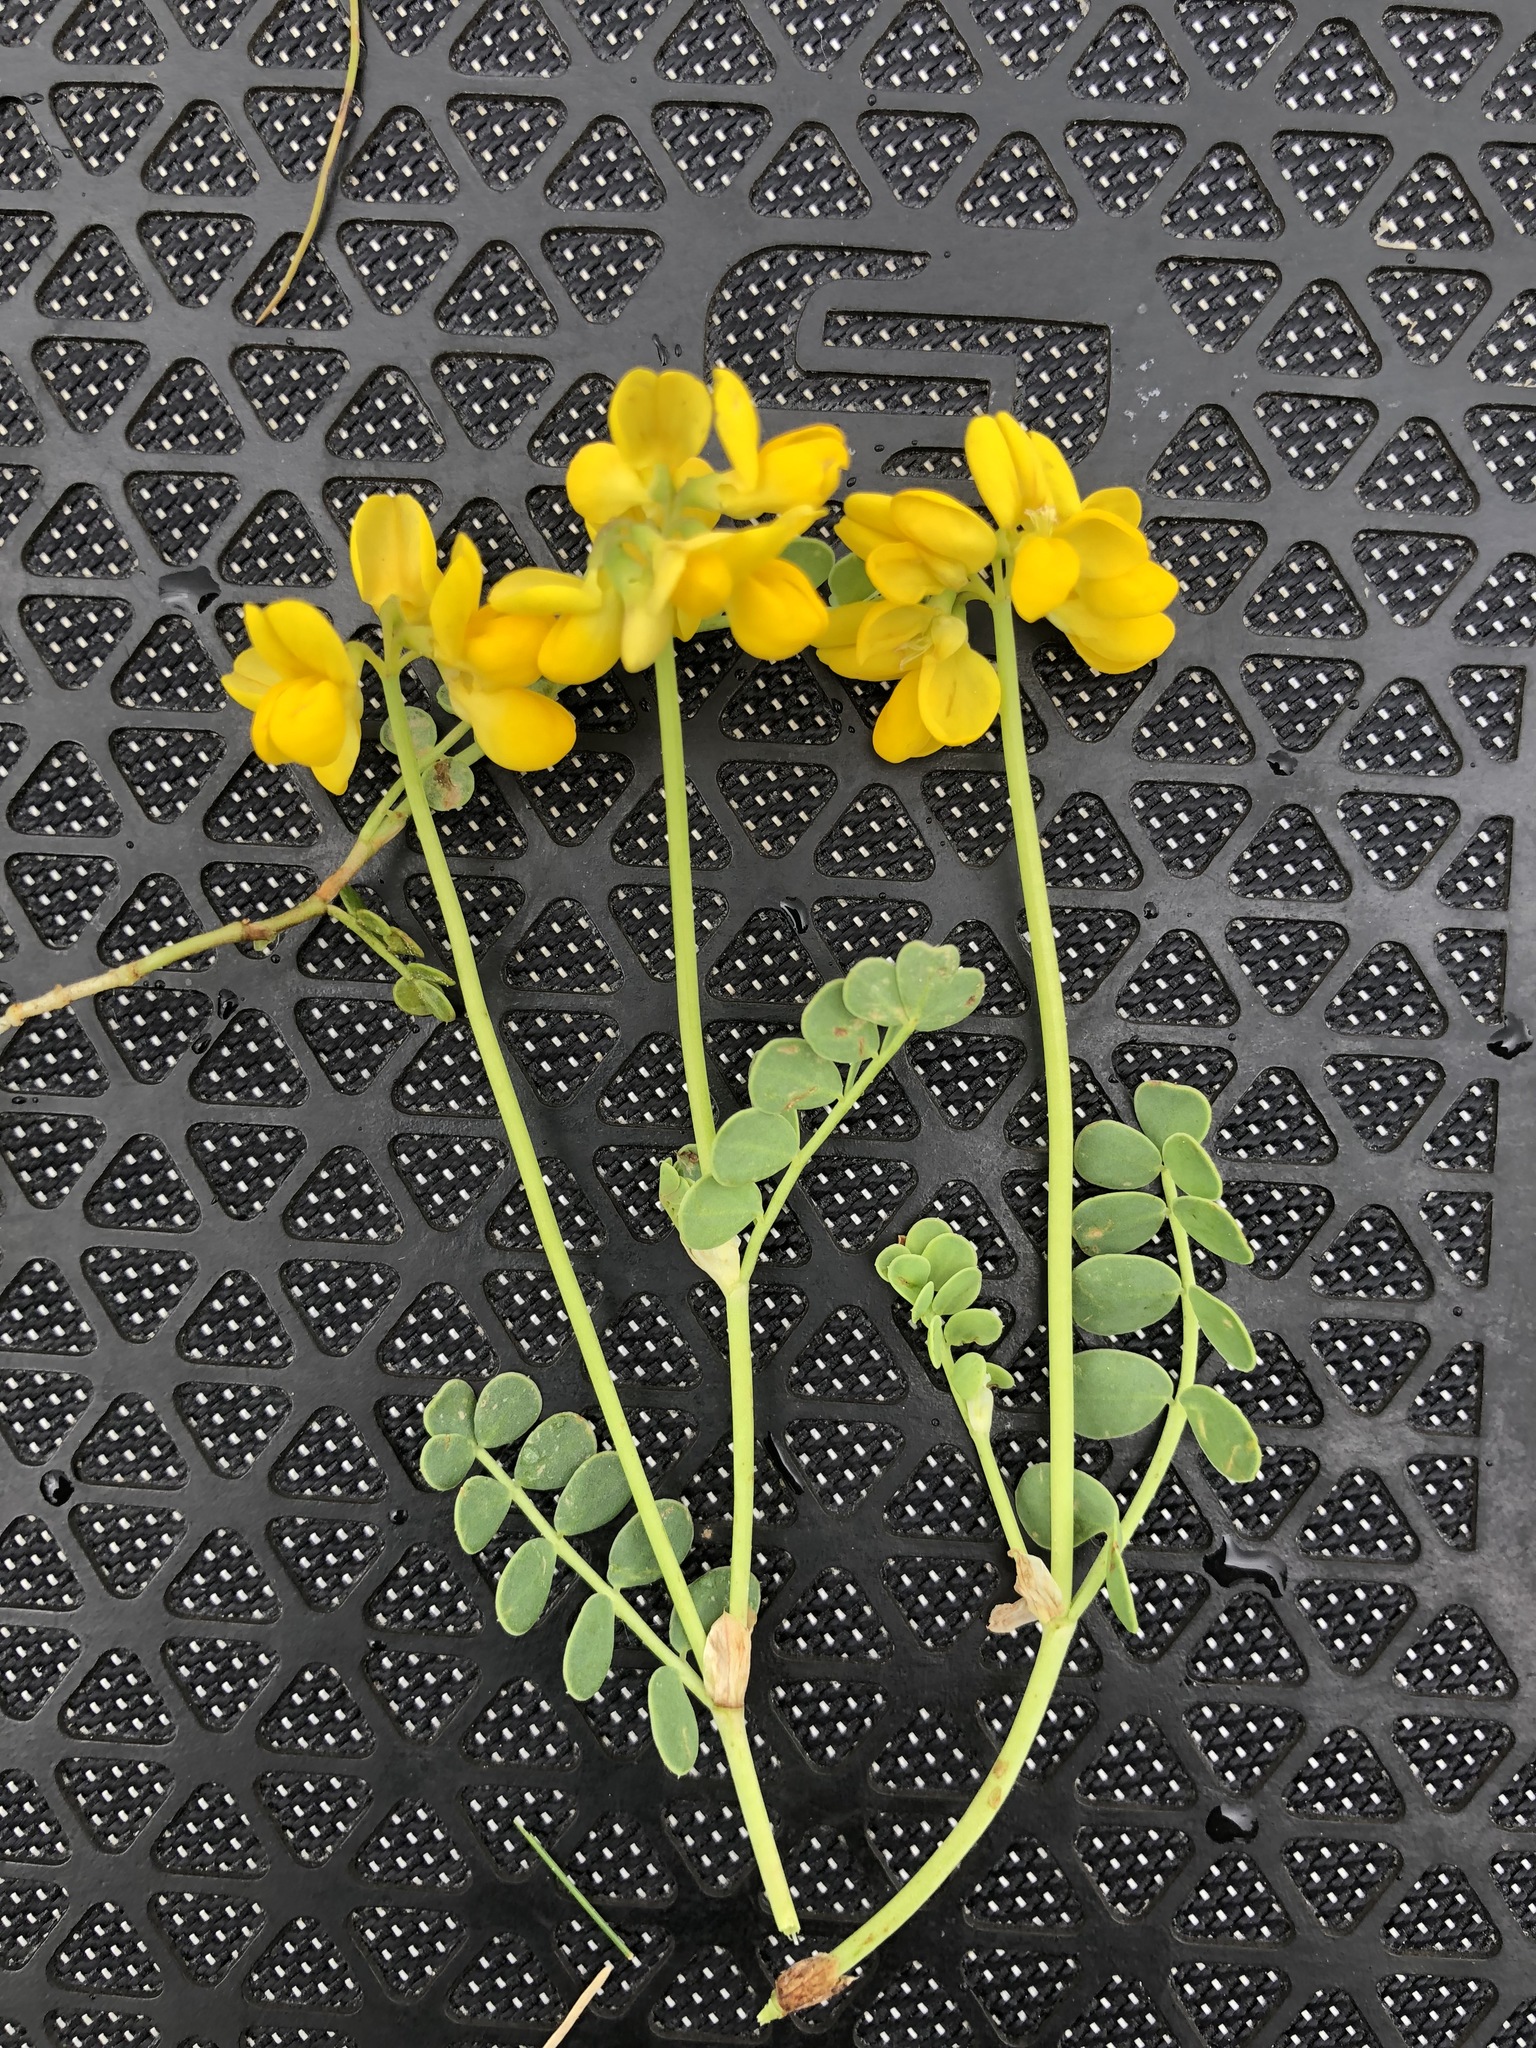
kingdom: Plantae
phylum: Tracheophyta
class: Magnoliopsida
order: Fabales
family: Fabaceae
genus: Coronilla
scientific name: Coronilla vaginalis
